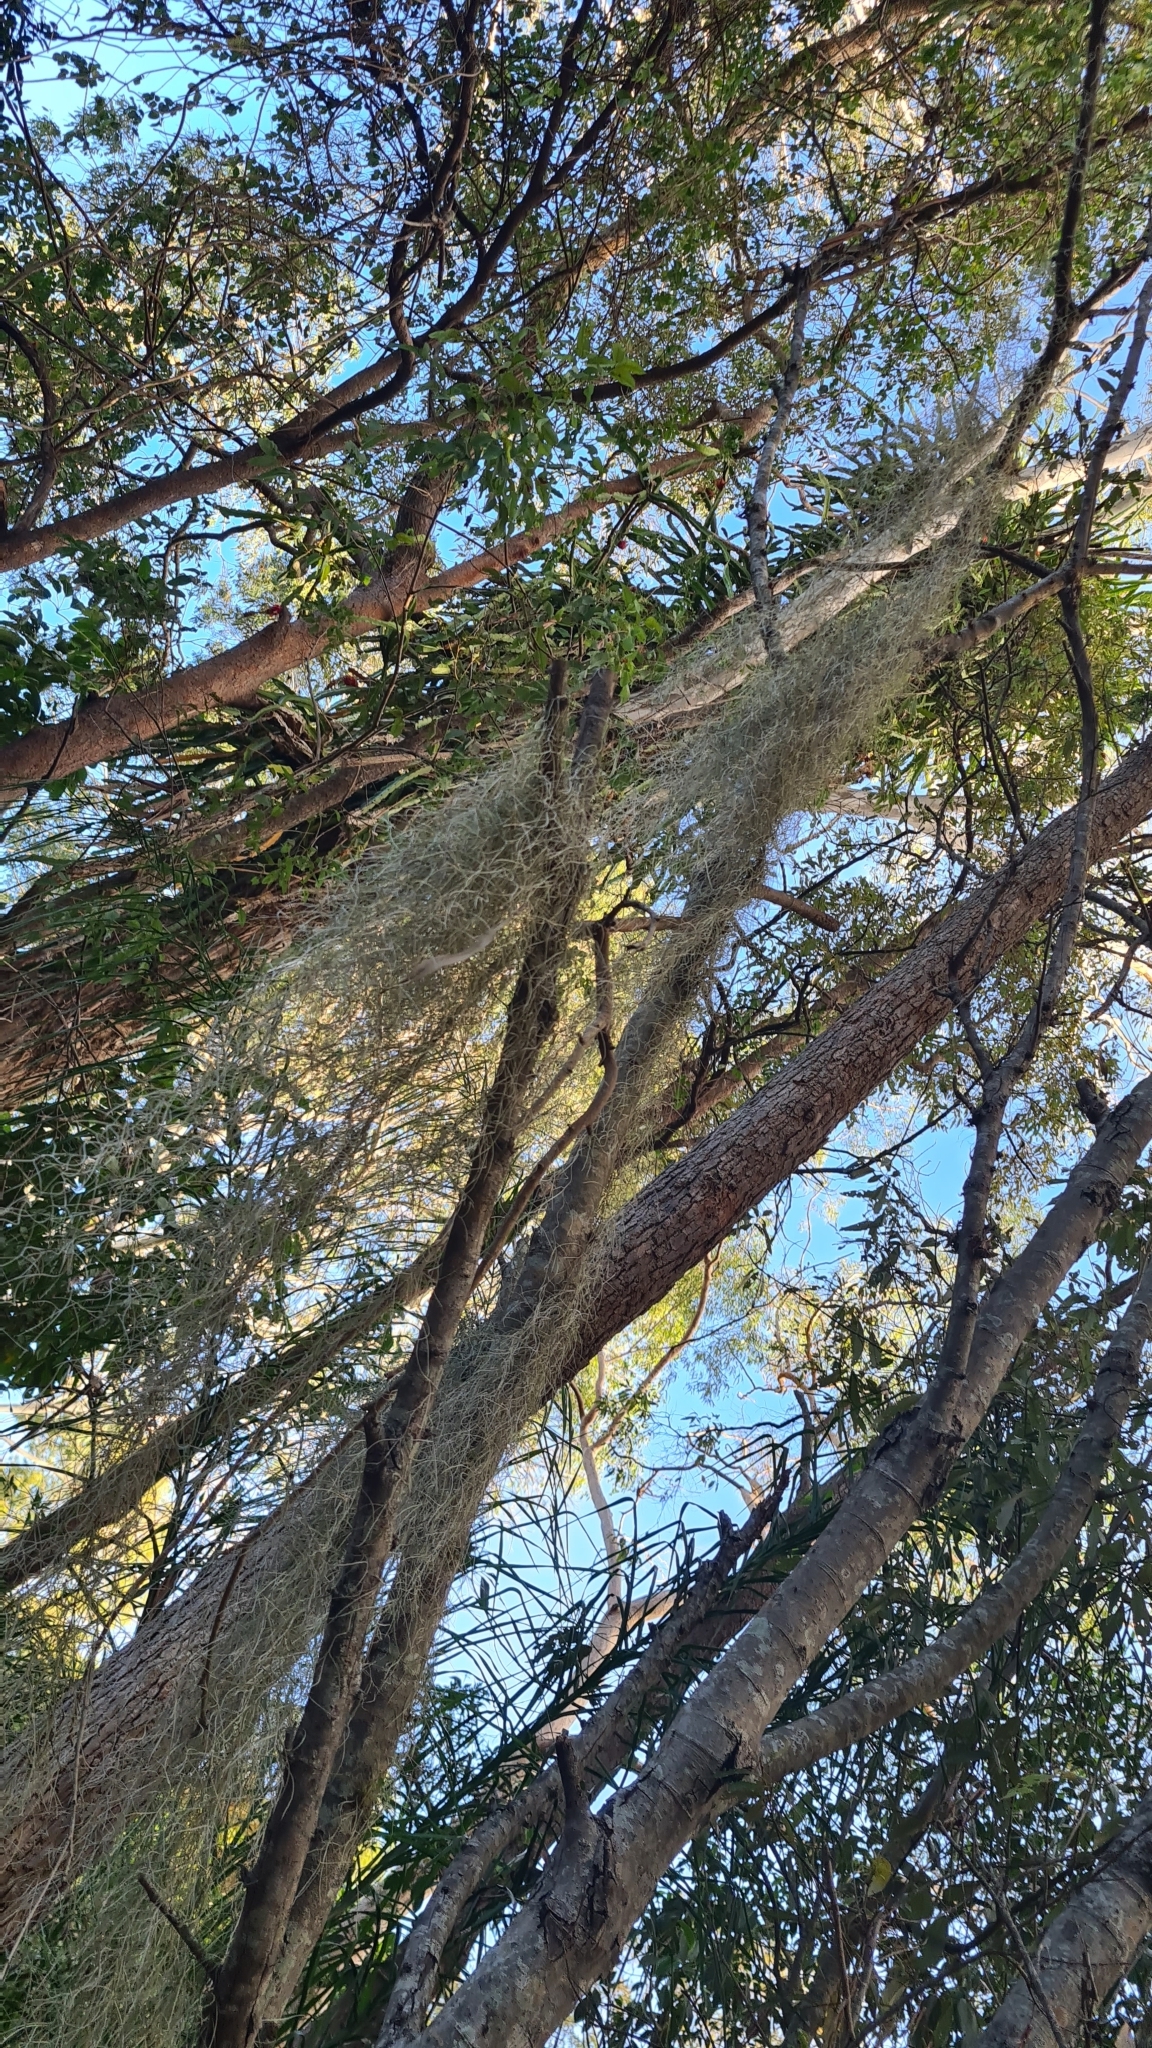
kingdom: Plantae
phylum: Tracheophyta
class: Liliopsida
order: Poales
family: Bromeliaceae
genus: Tillandsia
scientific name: Tillandsia usneoides
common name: Spanish moss
